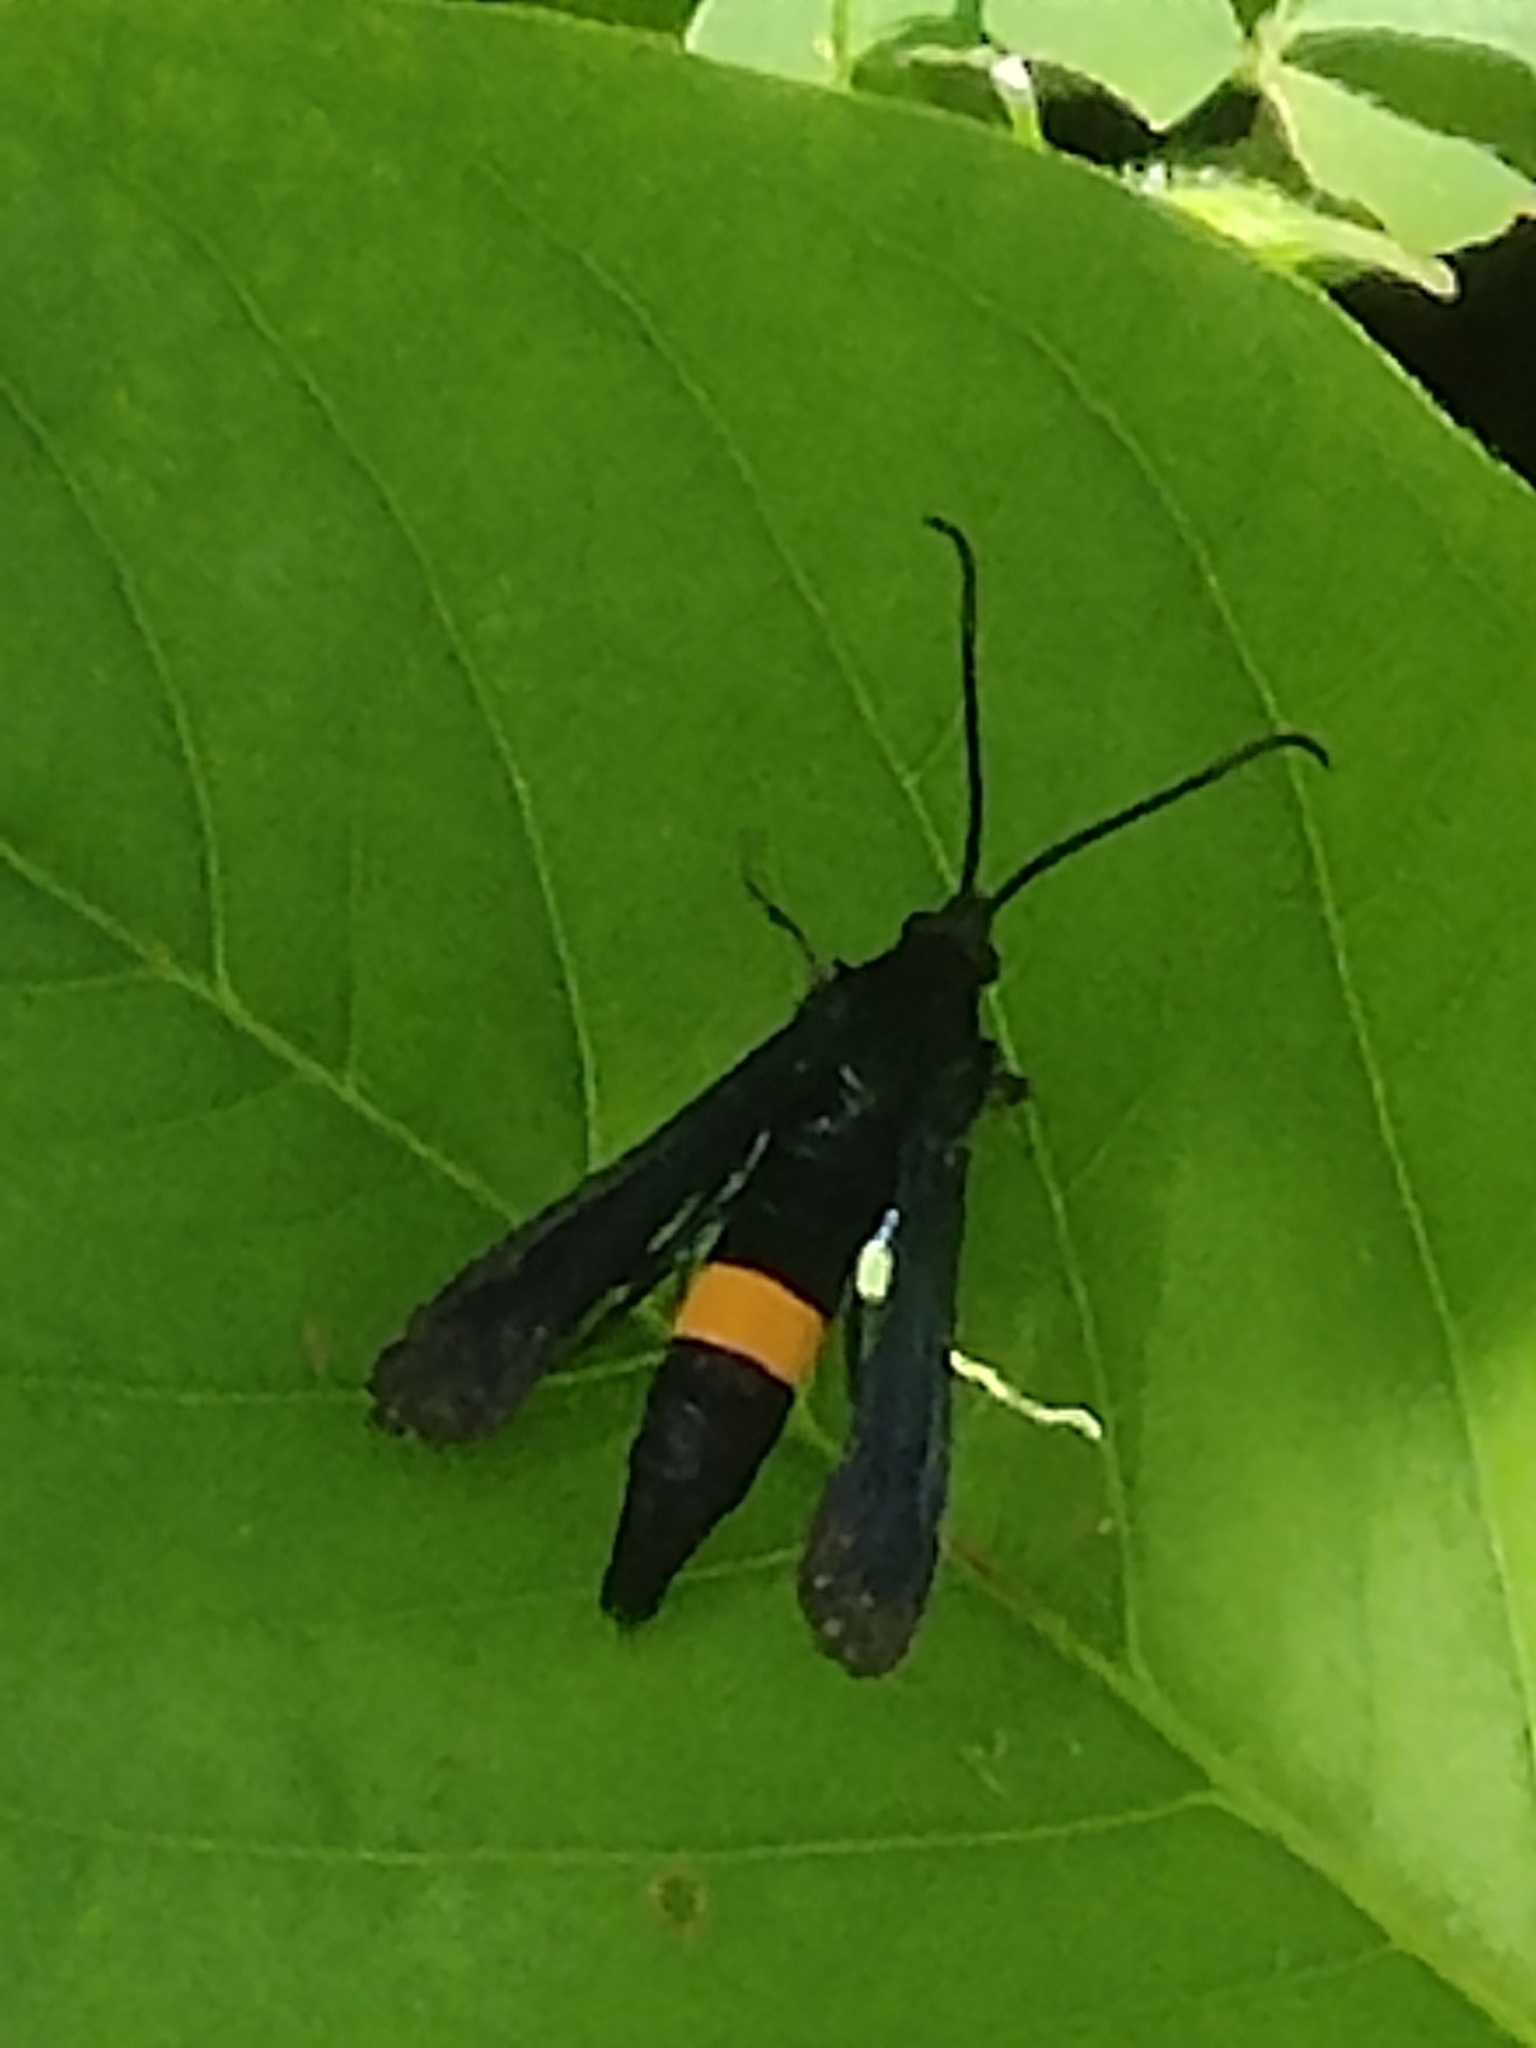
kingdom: Animalia
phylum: Arthropoda
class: Insecta
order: Lepidoptera
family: Sesiidae
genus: Synanthedon
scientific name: Synanthedon exitiosa
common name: Peachtree borer moth
